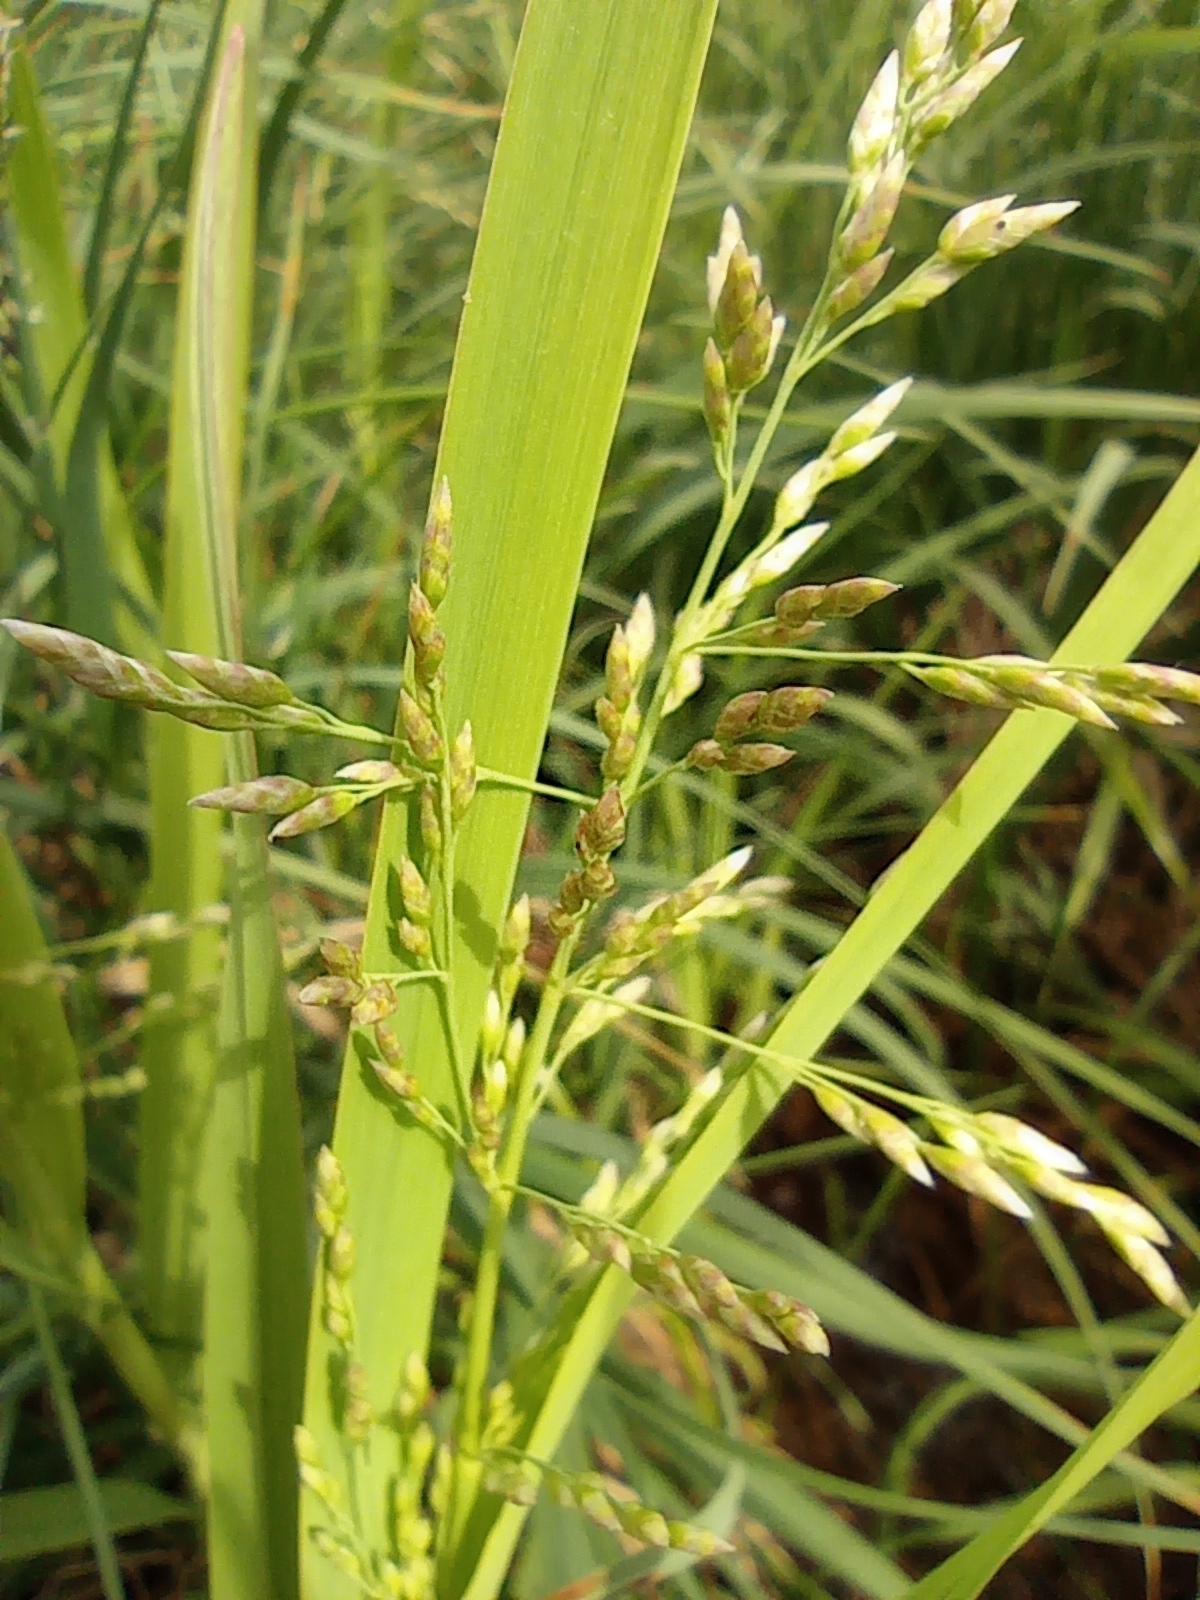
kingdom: Plantae
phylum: Tracheophyta
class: Liliopsida
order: Poales
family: Poaceae
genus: Dupontia
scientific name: Dupontia fulva
